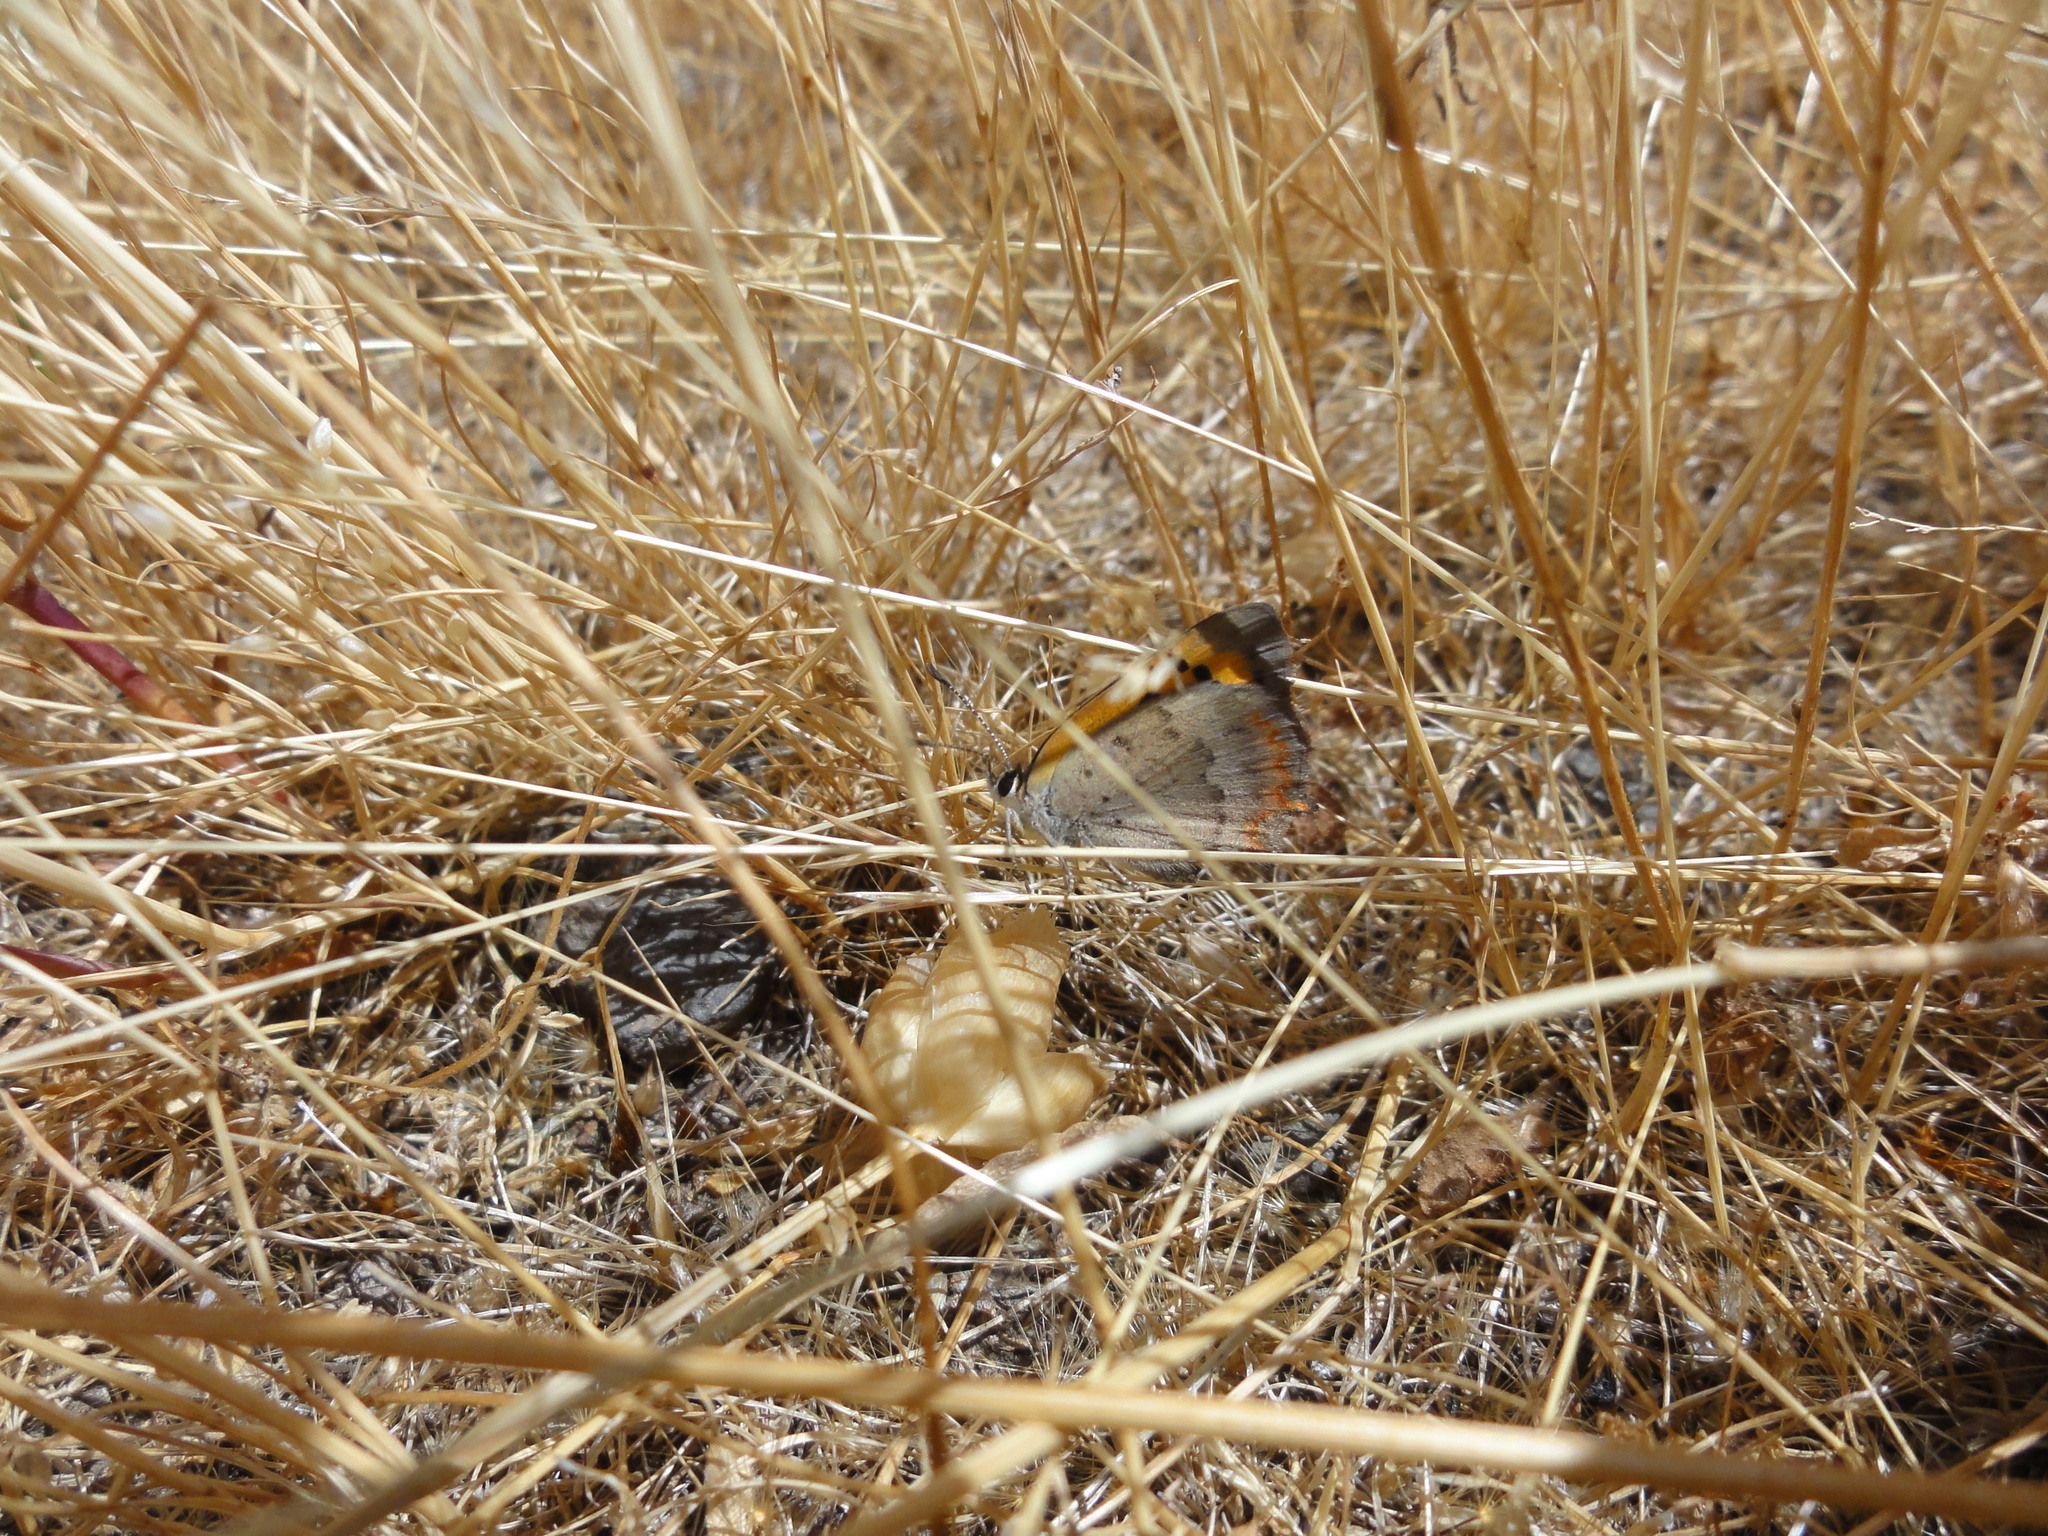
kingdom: Animalia
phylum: Arthropoda
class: Insecta
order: Lepidoptera
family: Lycaenidae
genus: Lycaena
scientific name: Lycaena phlaeas
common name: Small copper
